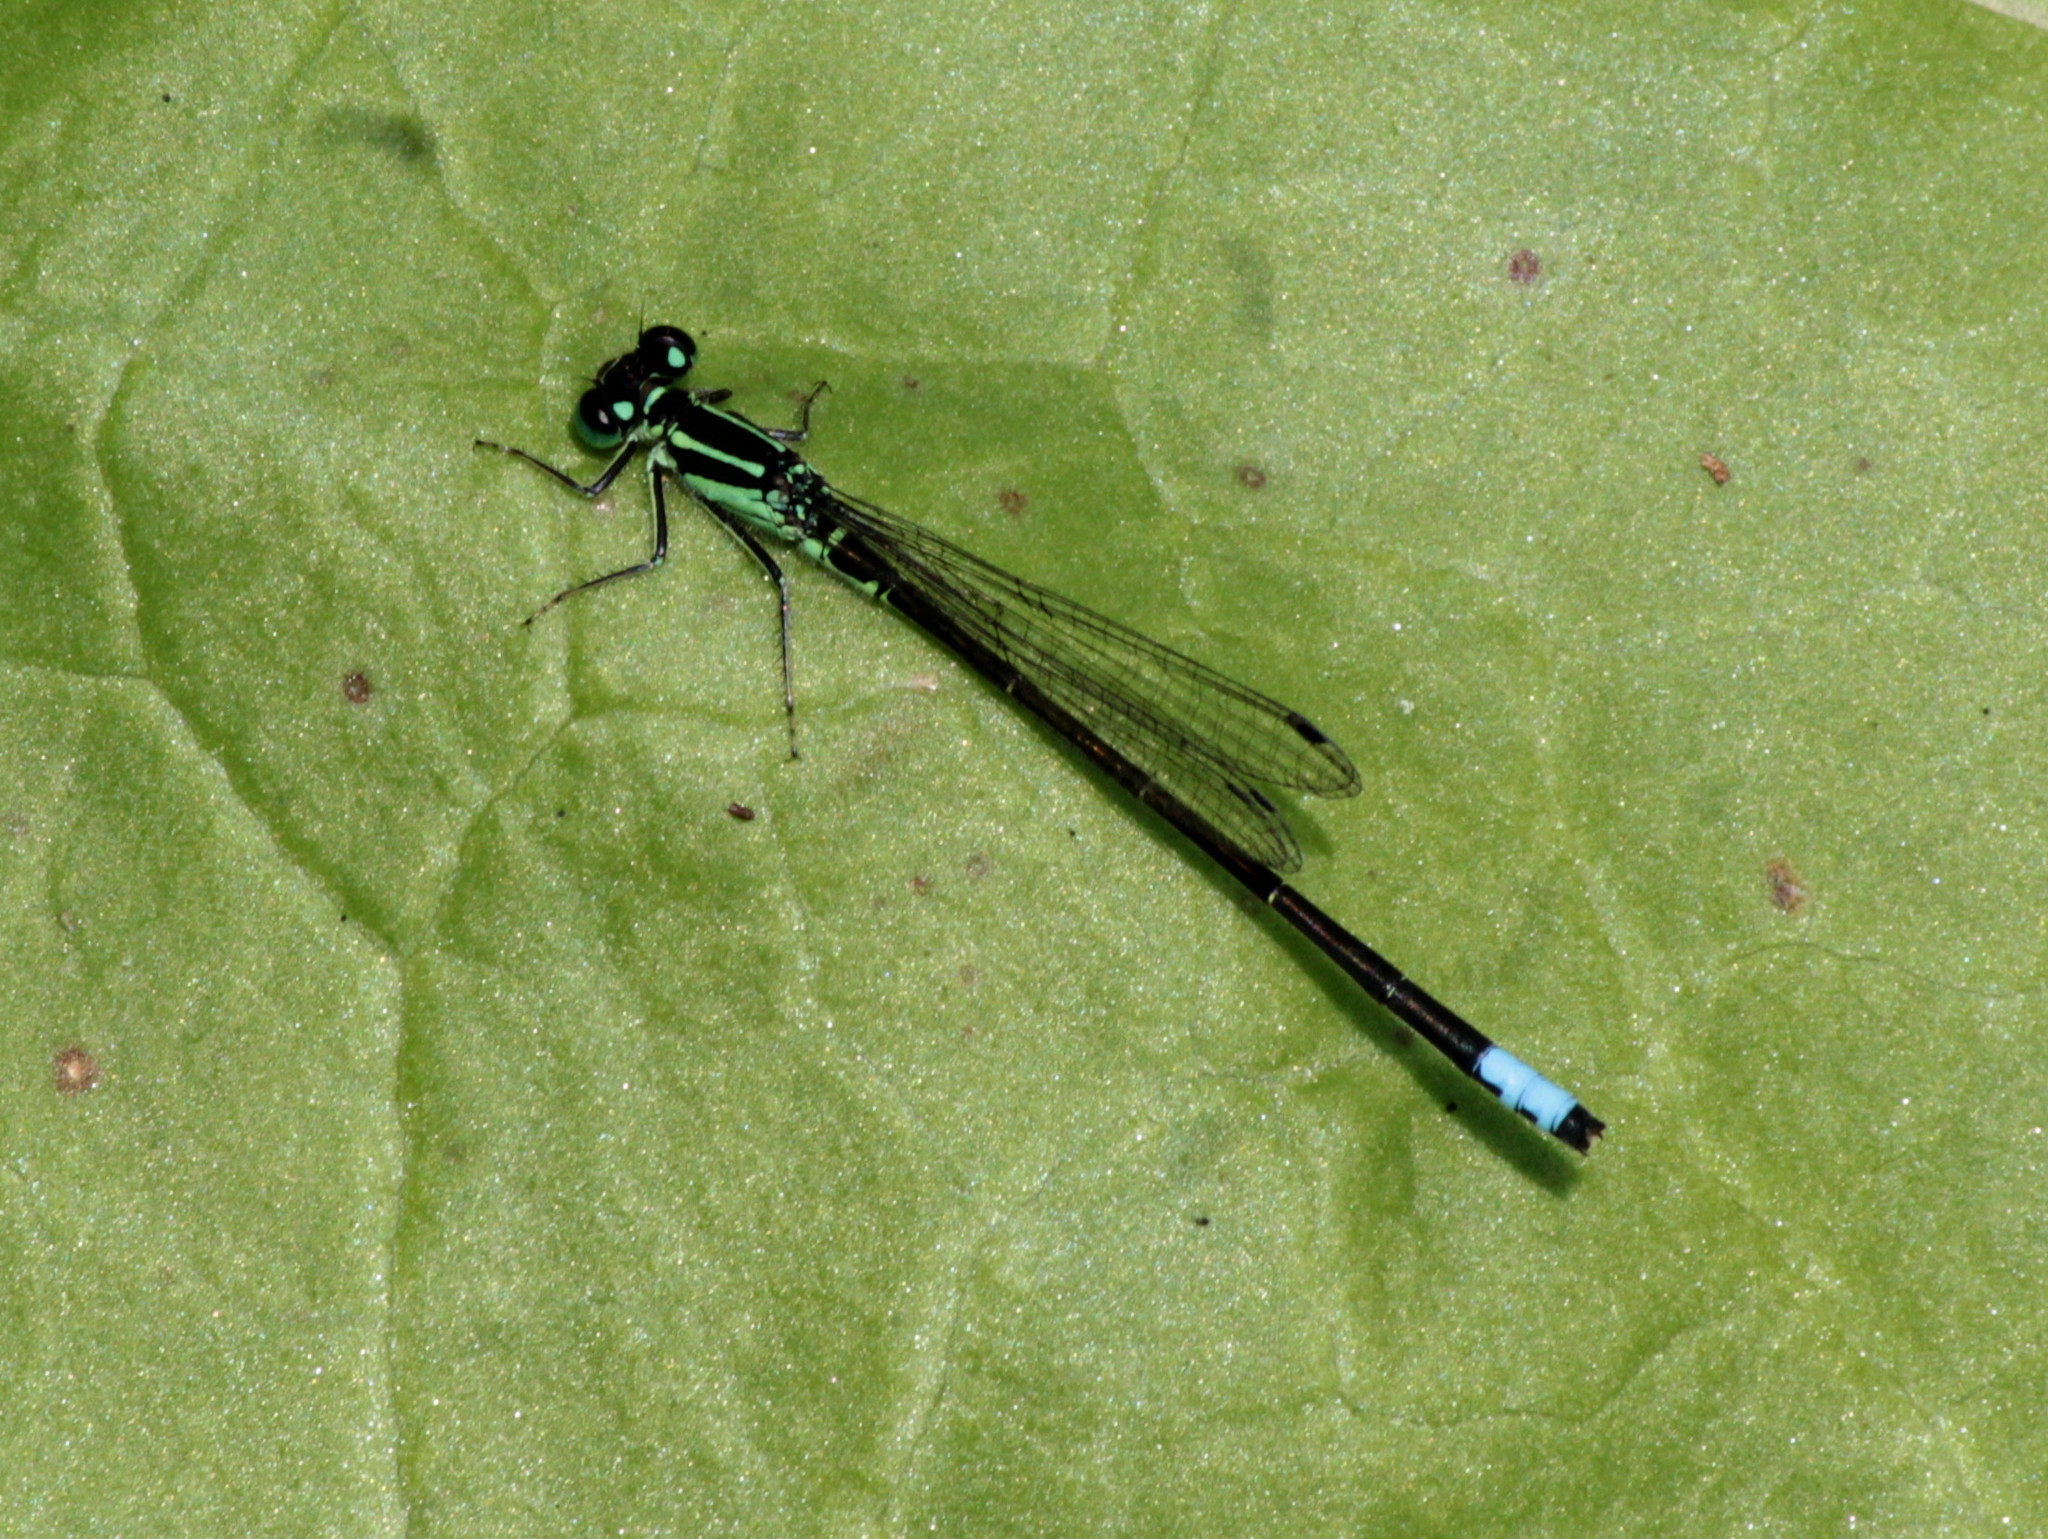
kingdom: Animalia
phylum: Arthropoda
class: Insecta
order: Odonata
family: Coenagrionidae
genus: Ischnura
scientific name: Ischnura verticalis
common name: Eastern forktail
